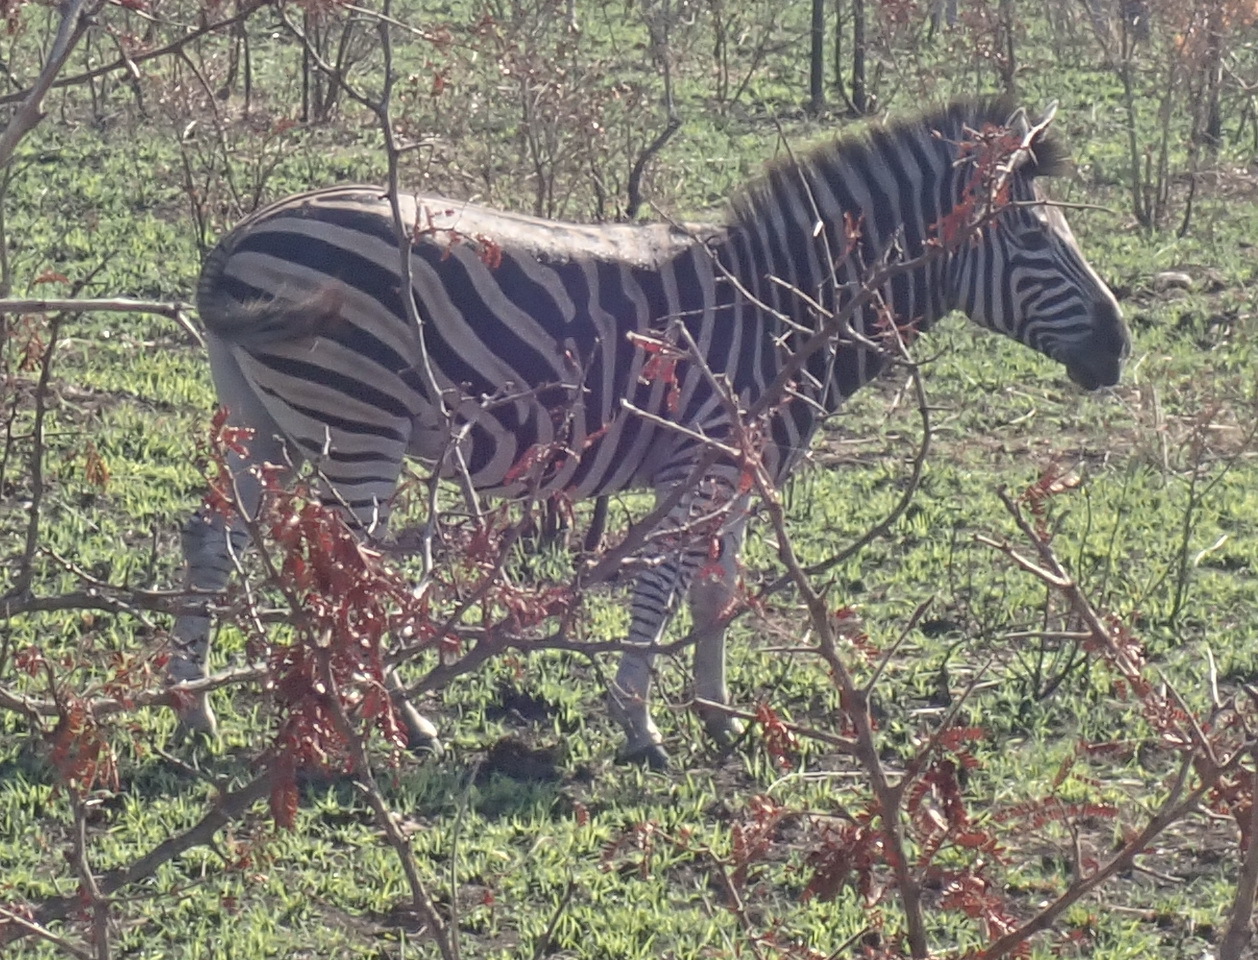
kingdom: Animalia
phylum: Chordata
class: Mammalia
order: Perissodactyla
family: Equidae
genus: Equus
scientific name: Equus quagga
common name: Plains zebra
